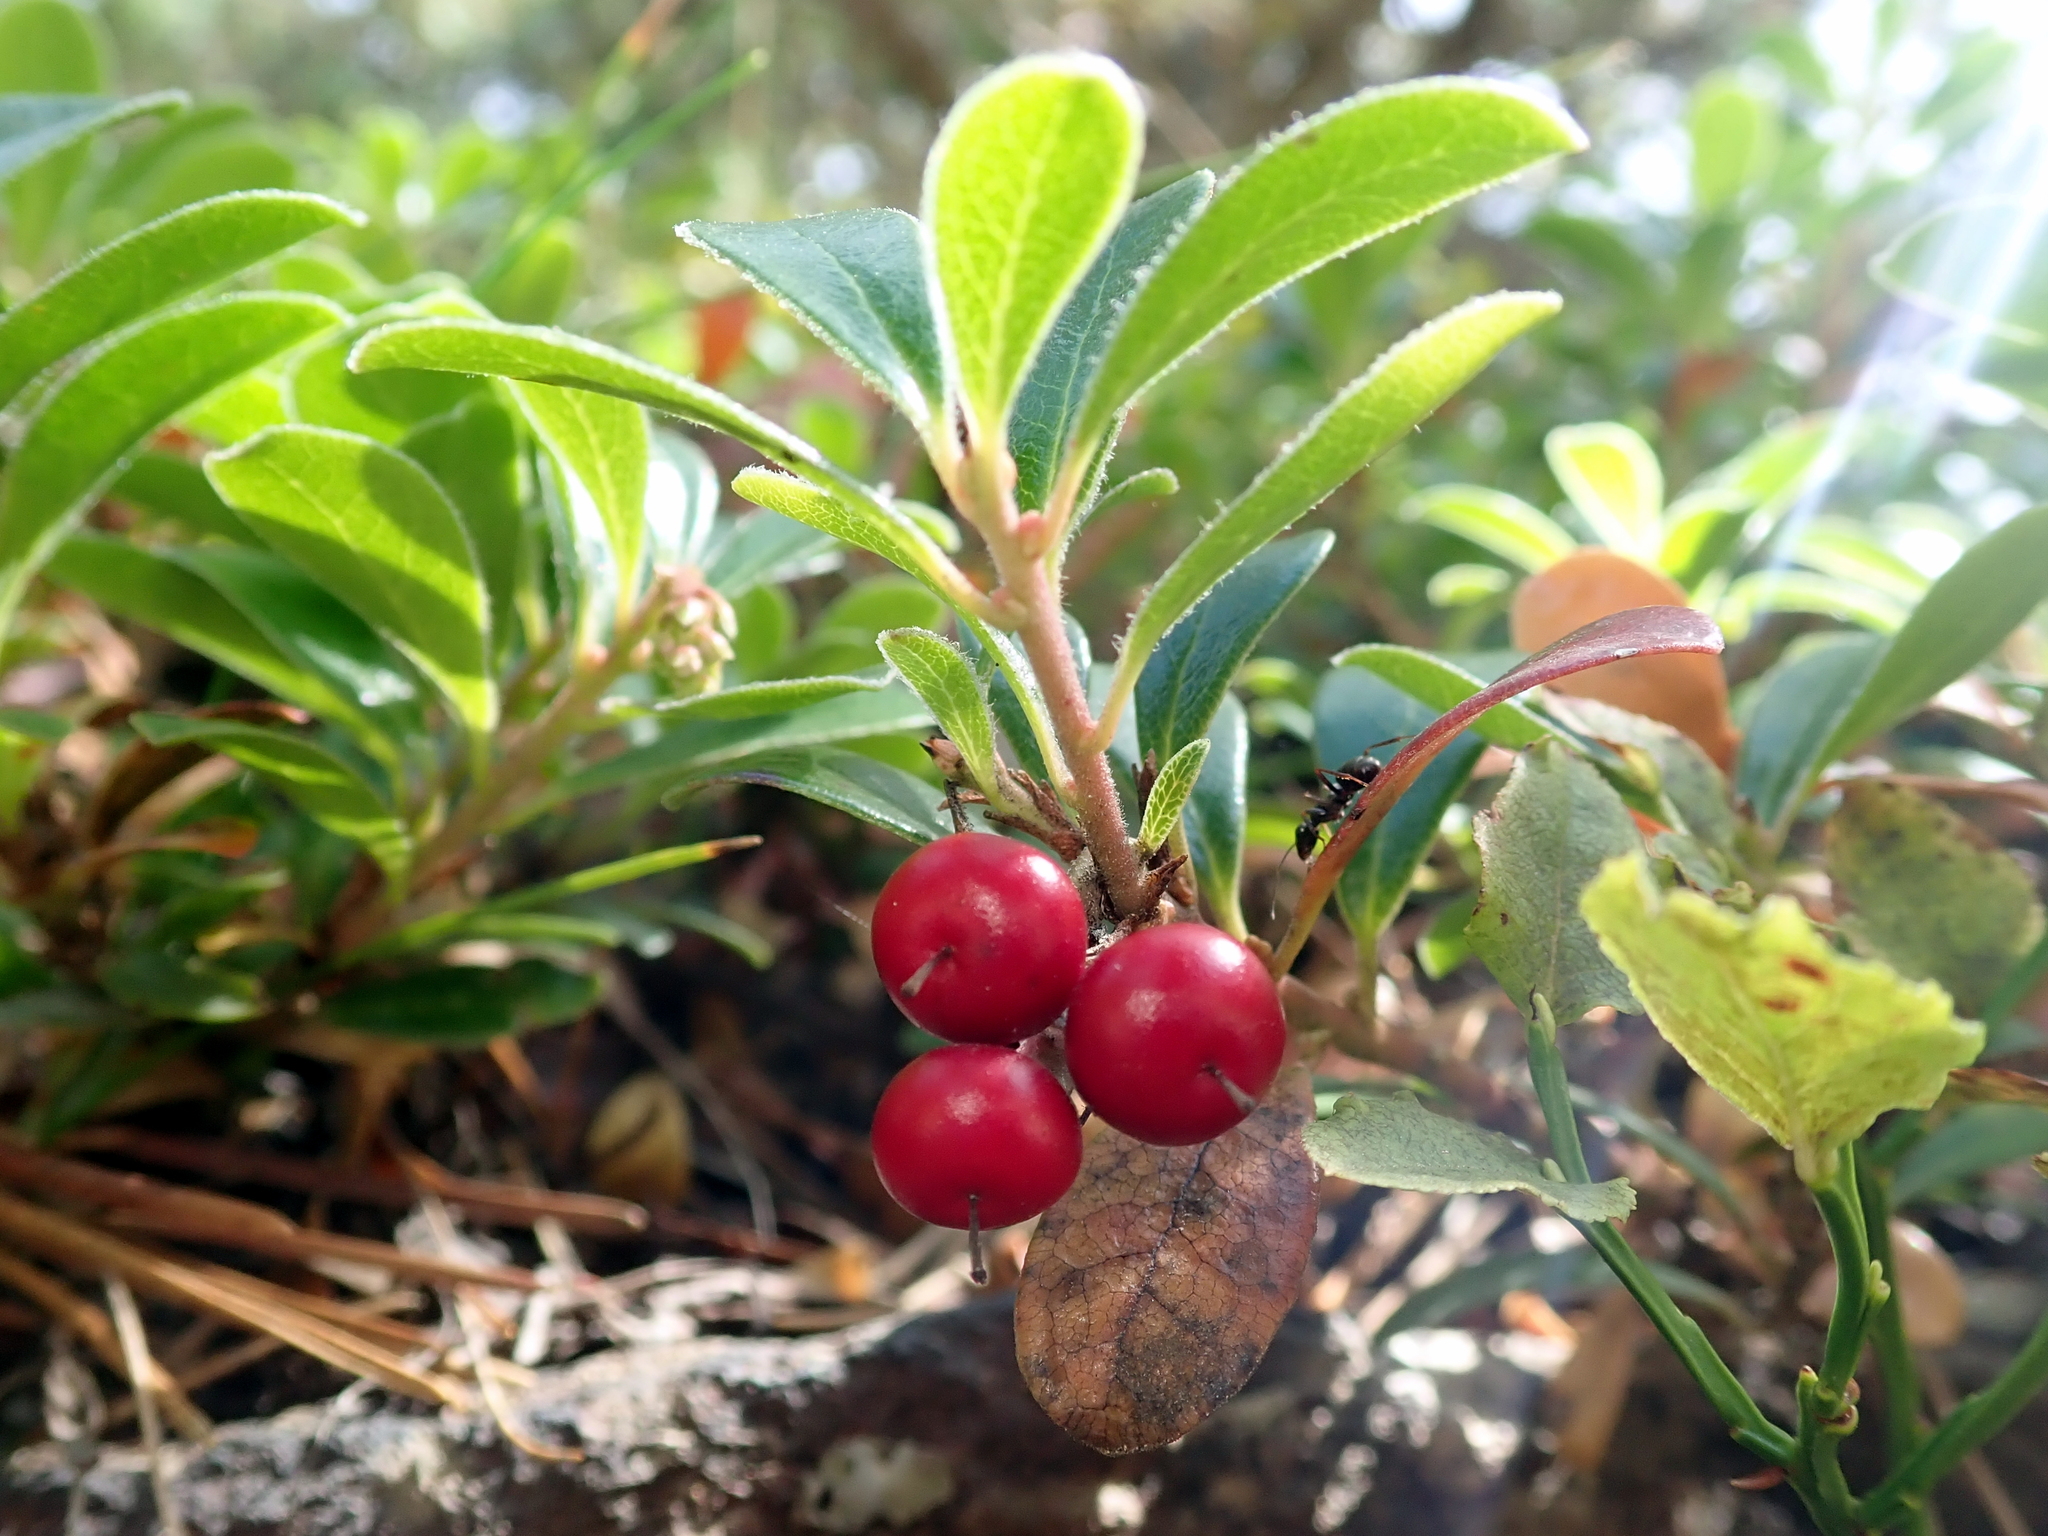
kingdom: Plantae
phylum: Tracheophyta
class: Magnoliopsida
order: Ericales
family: Ericaceae
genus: Arctostaphylos
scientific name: Arctostaphylos uva-ursi
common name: Bearberry
